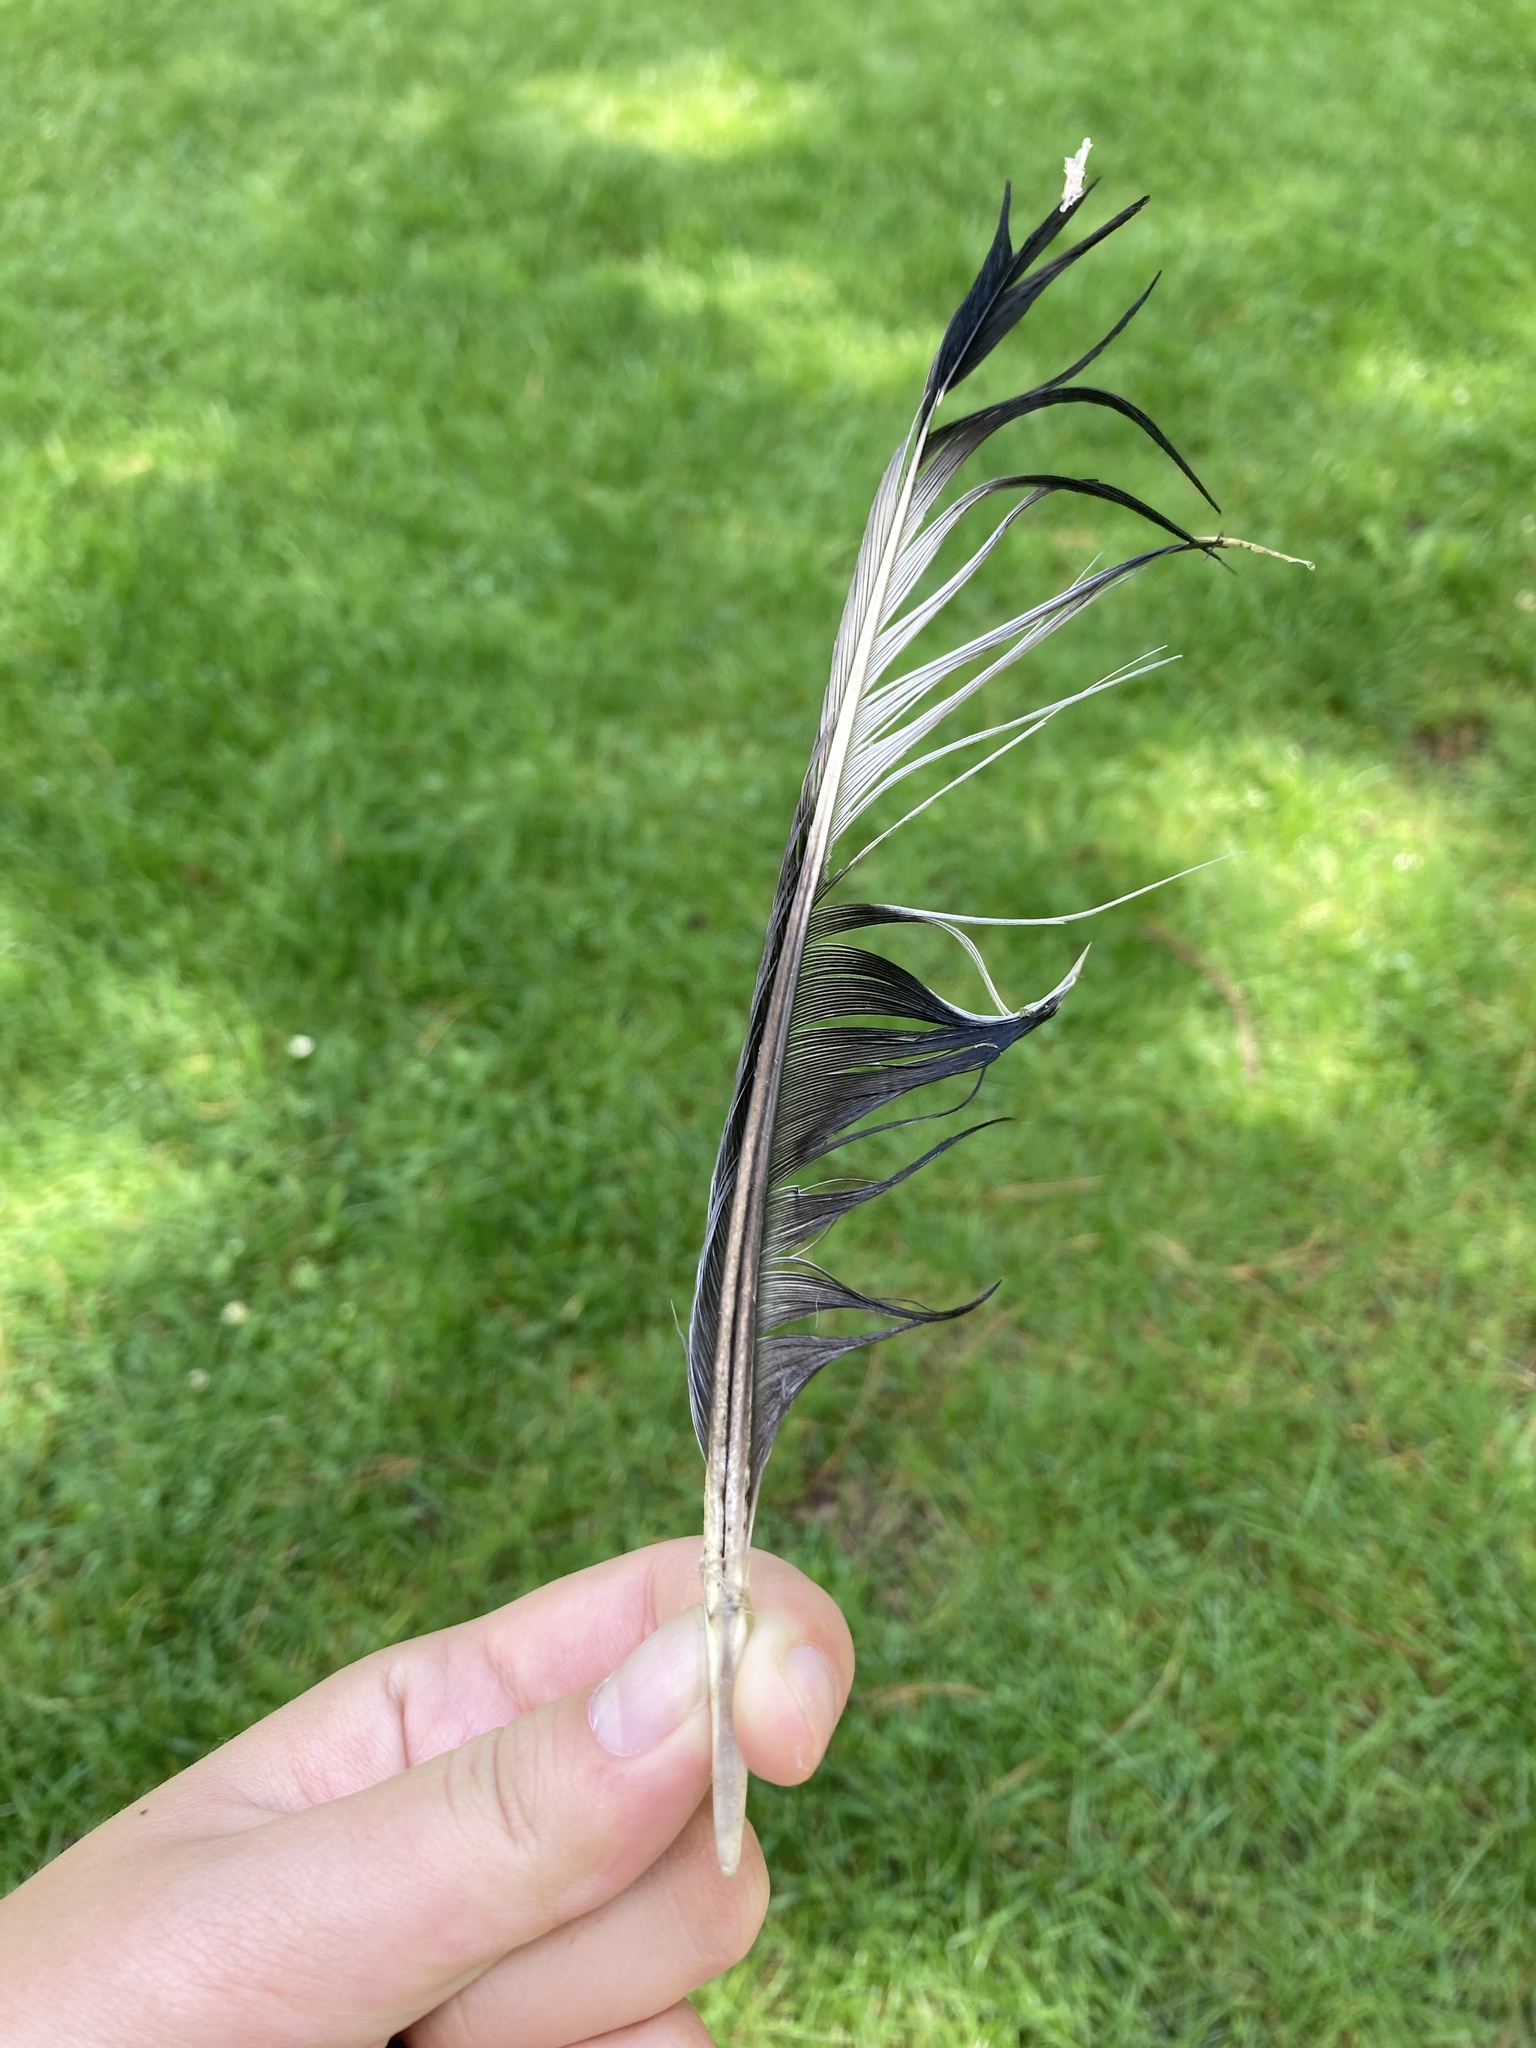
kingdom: Animalia
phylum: Chordata
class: Aves
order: Columbiformes
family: Columbidae
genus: Columba
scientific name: Columba palumbus
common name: Common wood pigeon
